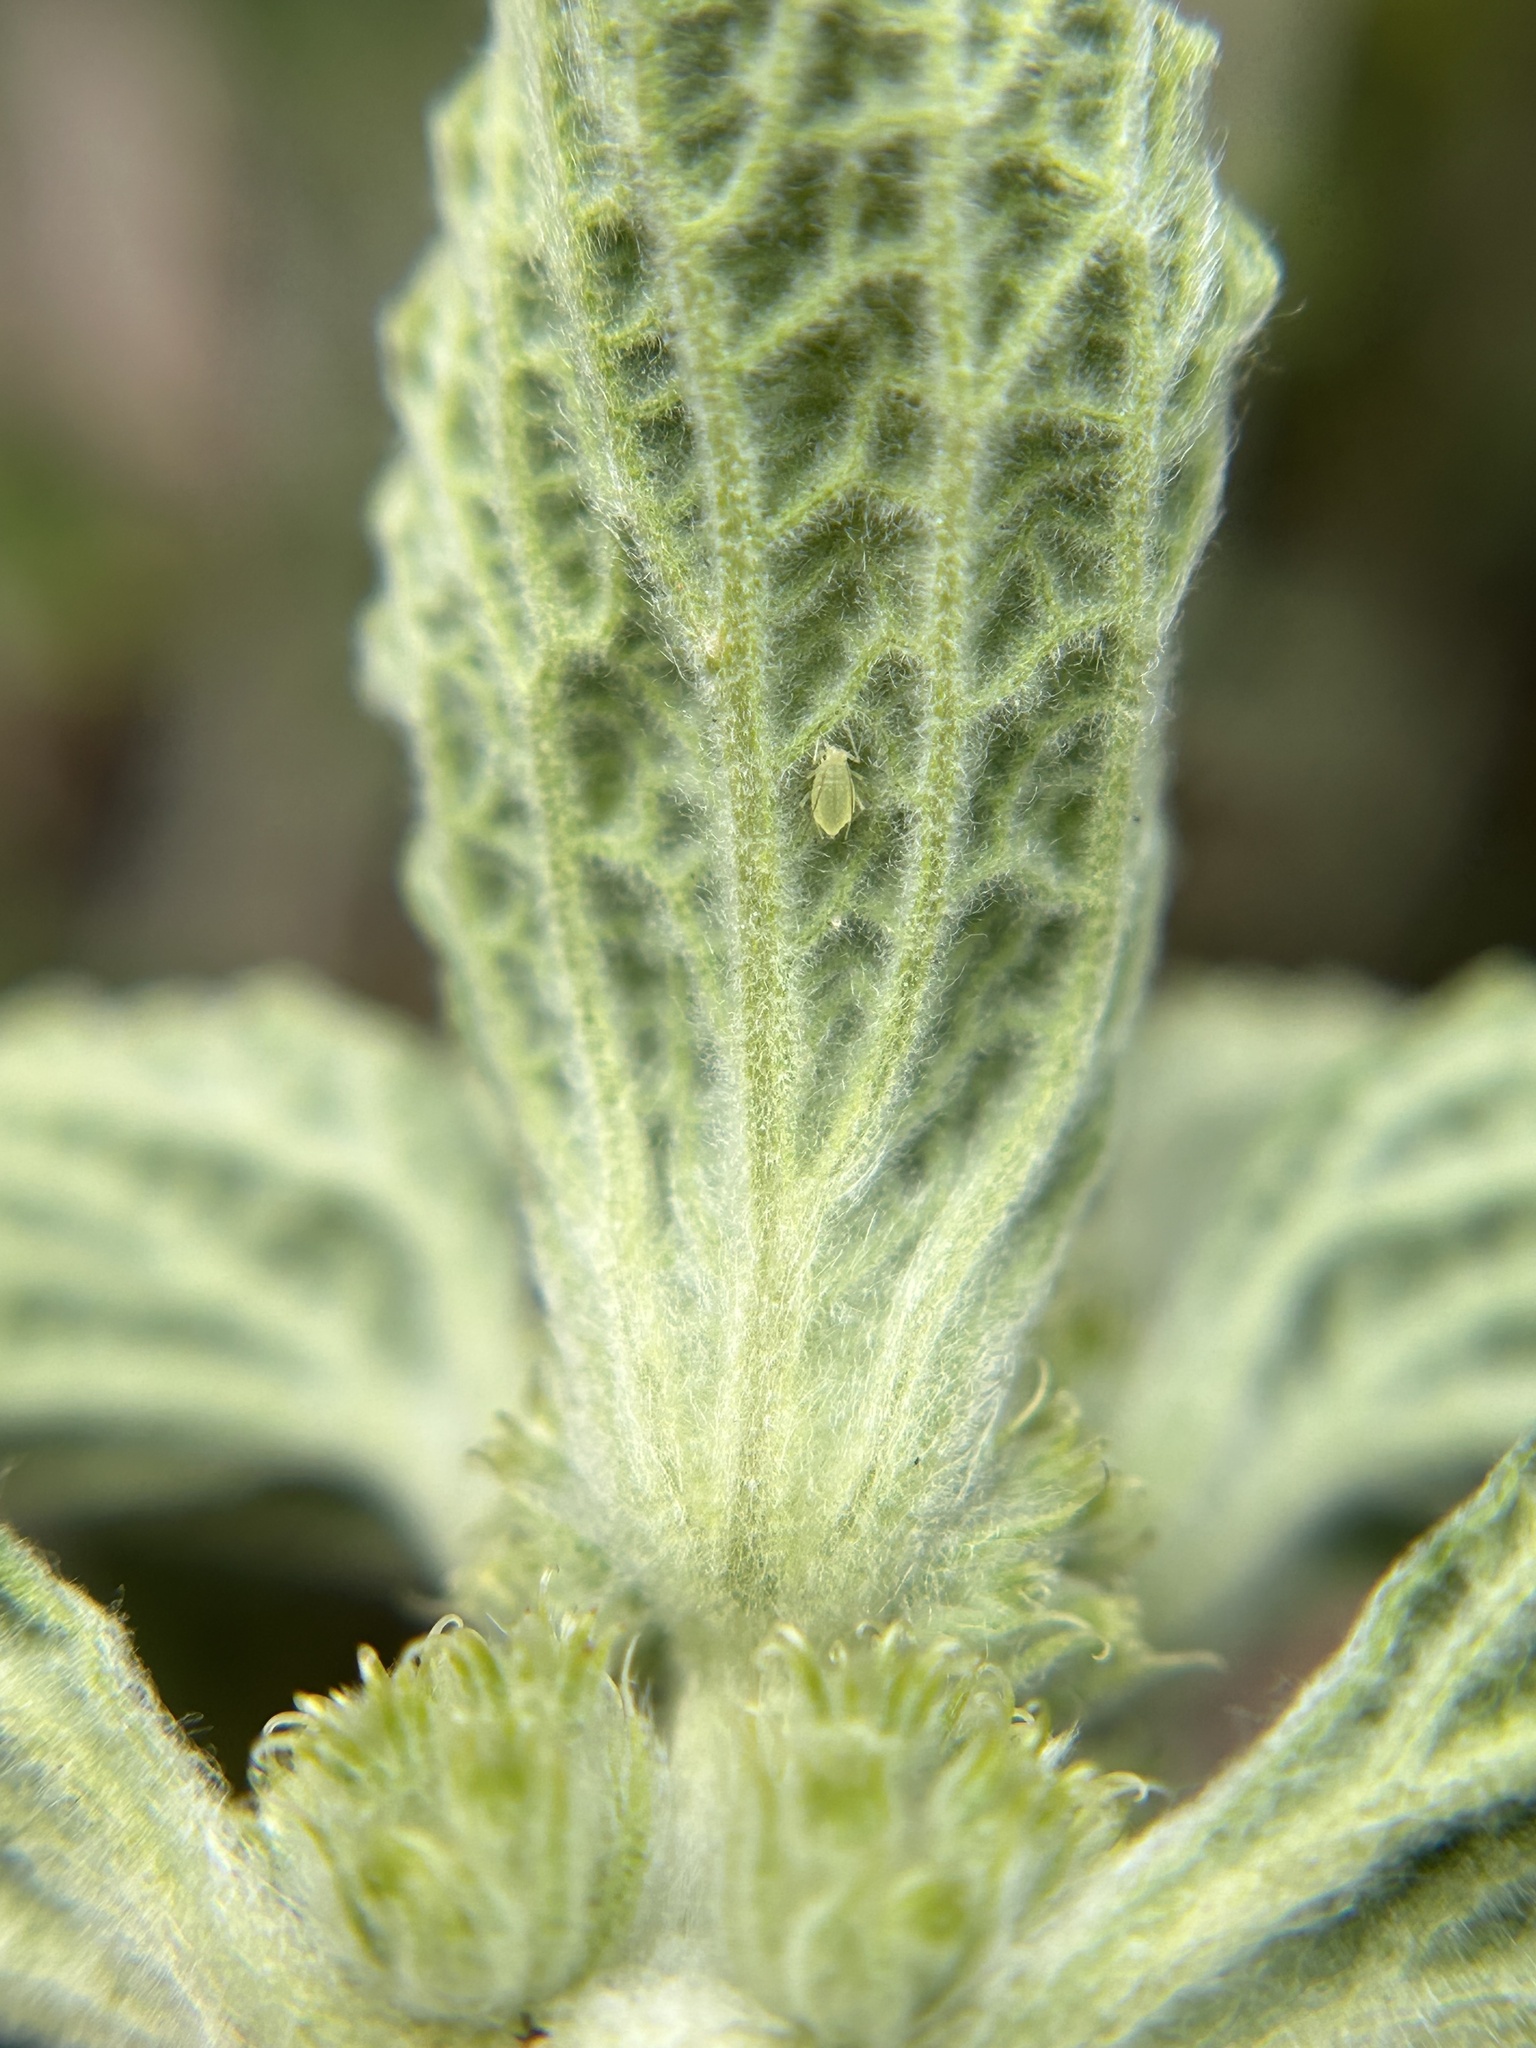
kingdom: Plantae
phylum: Tracheophyta
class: Magnoliopsida
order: Lamiales
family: Lamiaceae
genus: Marrubium
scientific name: Marrubium vulgare
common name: Horehound
